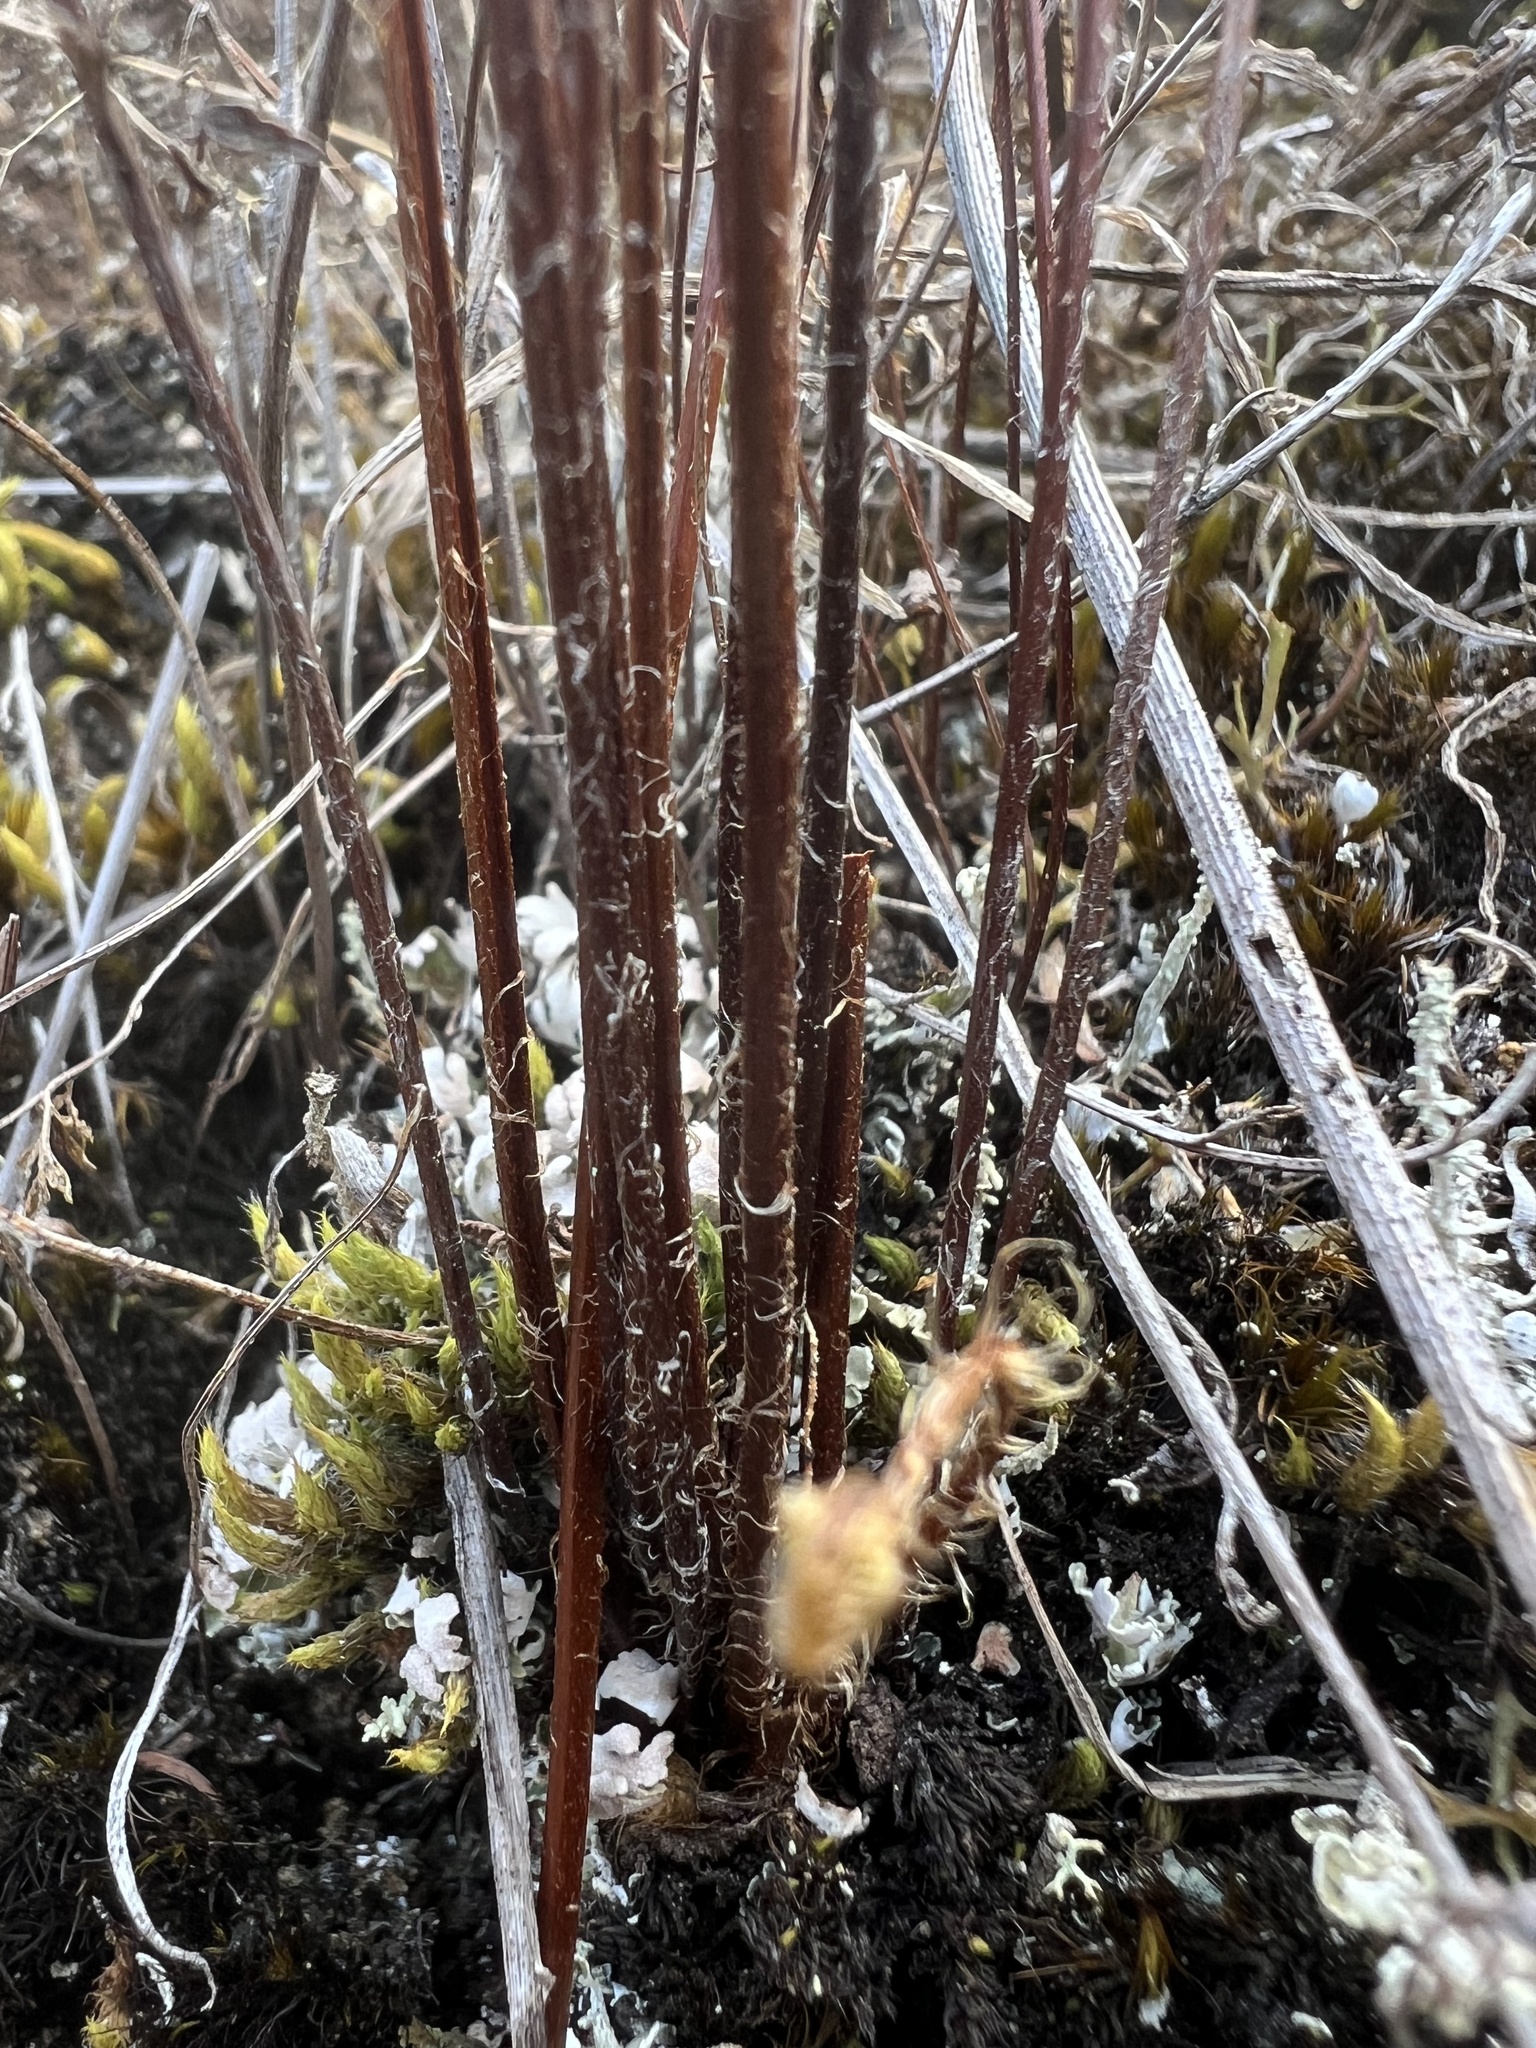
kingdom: Plantae
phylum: Tracheophyta
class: Polypodiopsida
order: Polypodiales
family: Pteridaceae
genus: Cheilanthes
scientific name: Cheilanthes sieberi
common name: Mulga fern
